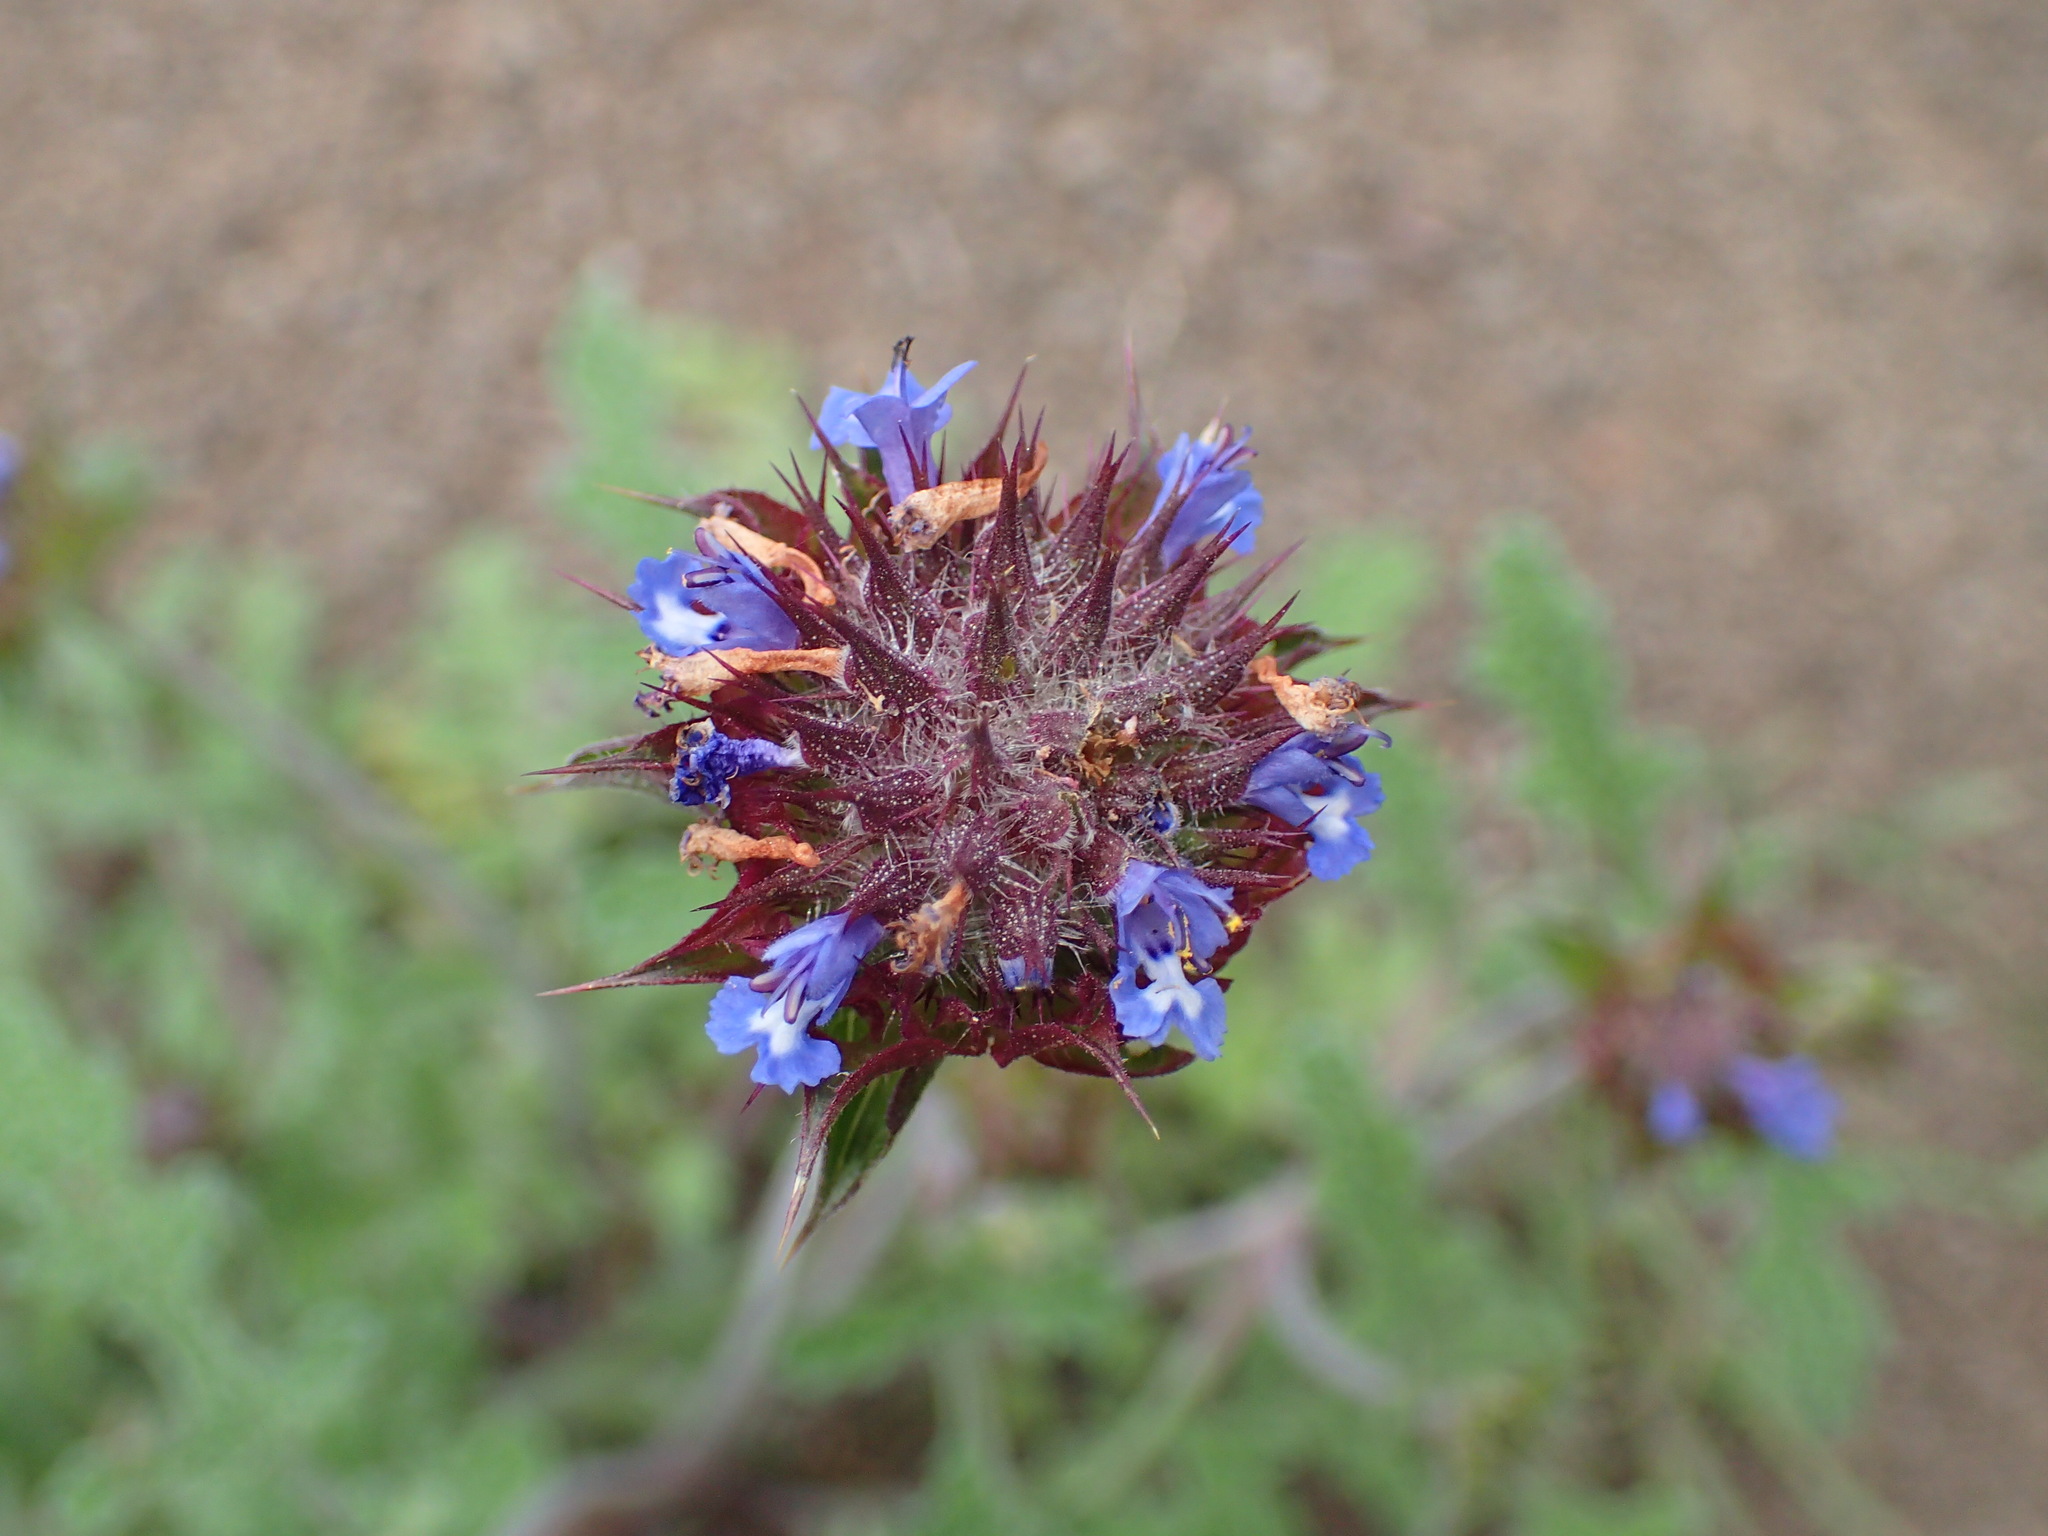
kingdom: Plantae
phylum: Tracheophyta
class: Magnoliopsida
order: Lamiales
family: Lamiaceae
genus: Salvia
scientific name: Salvia columbariae
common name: Chia
